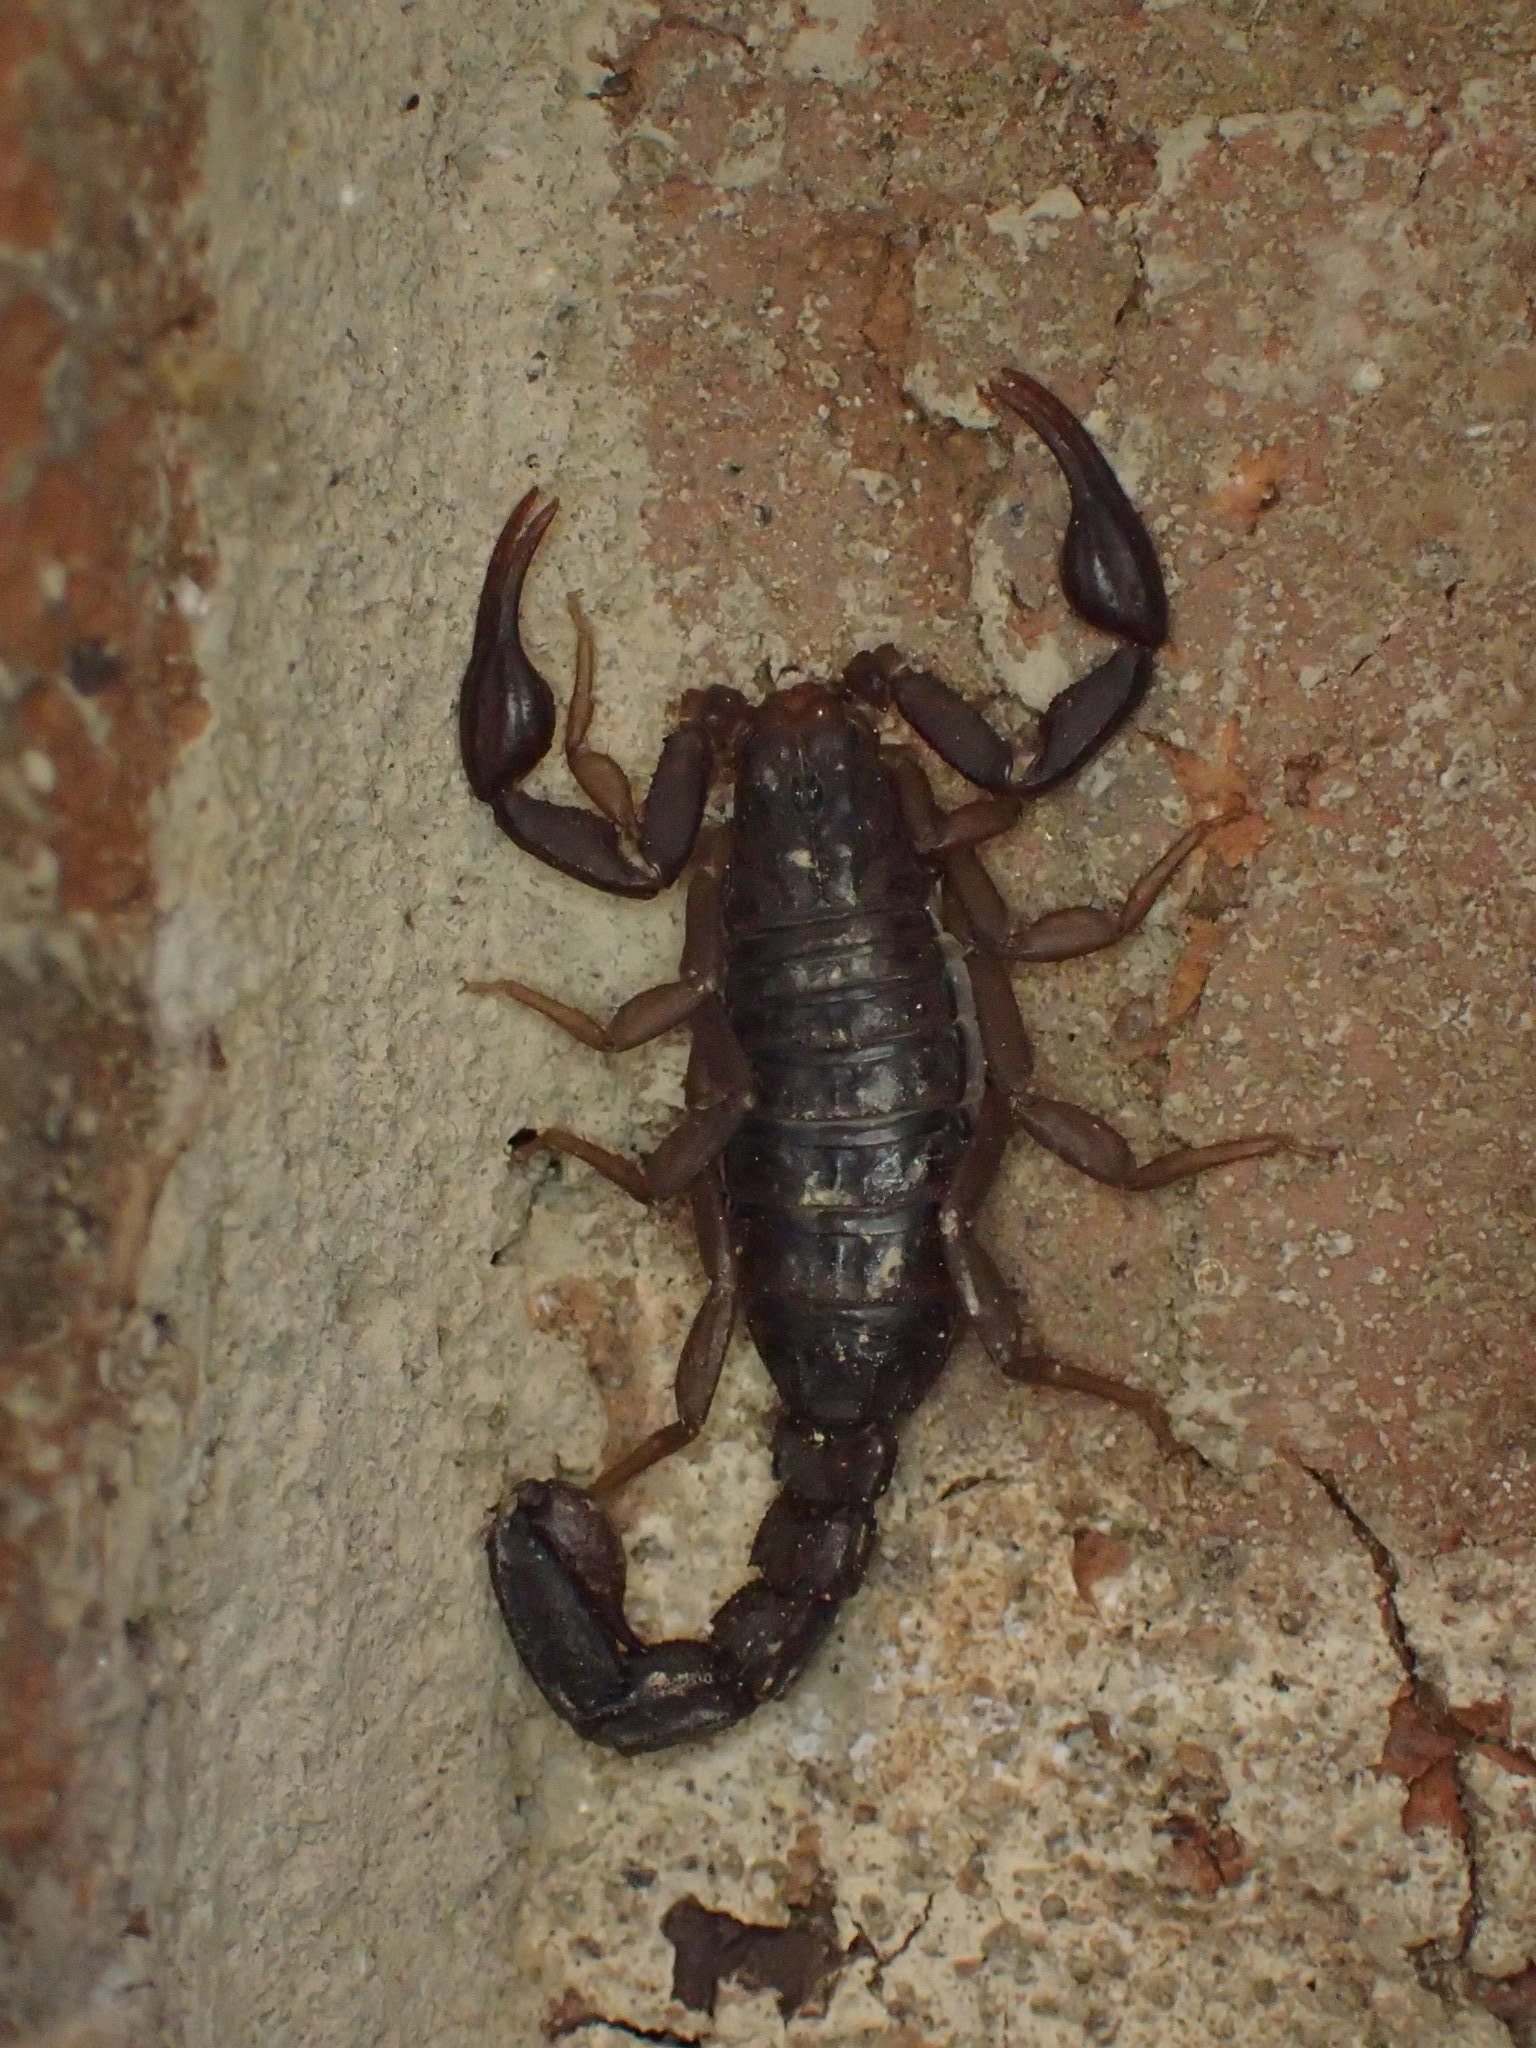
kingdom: Animalia
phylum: Arthropoda
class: Arachnida
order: Scorpiones
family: Vaejovidae
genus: Vaejovis
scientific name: Vaejovis carolinianus
